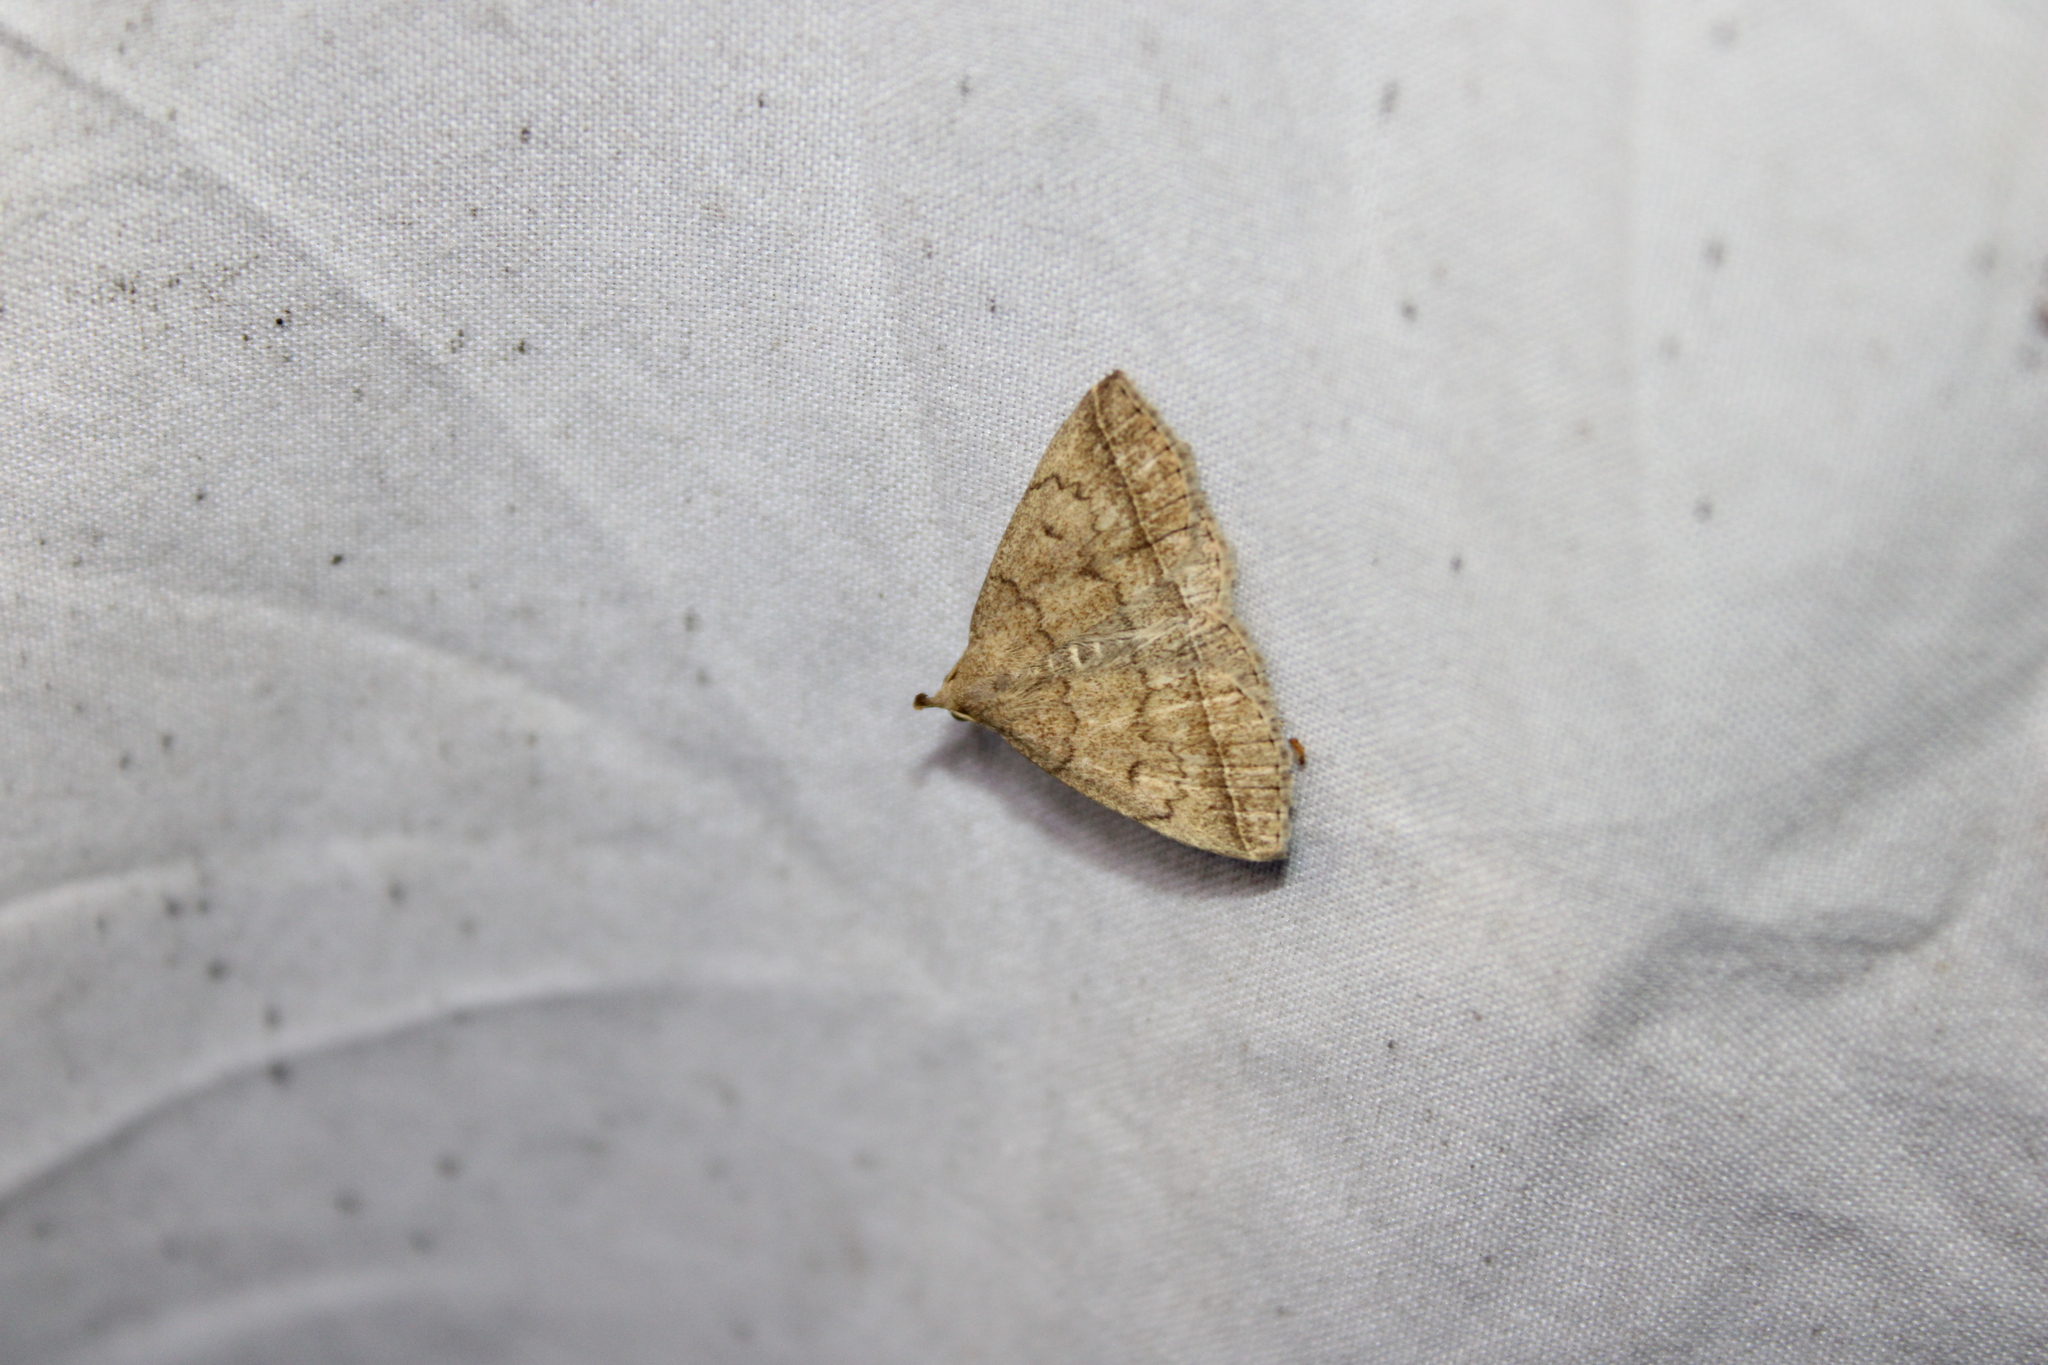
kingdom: Animalia
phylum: Arthropoda
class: Insecta
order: Lepidoptera
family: Erebidae
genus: Zanclognatha
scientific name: Zanclognatha jacchusalis
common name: Yellowish zanclognatha
